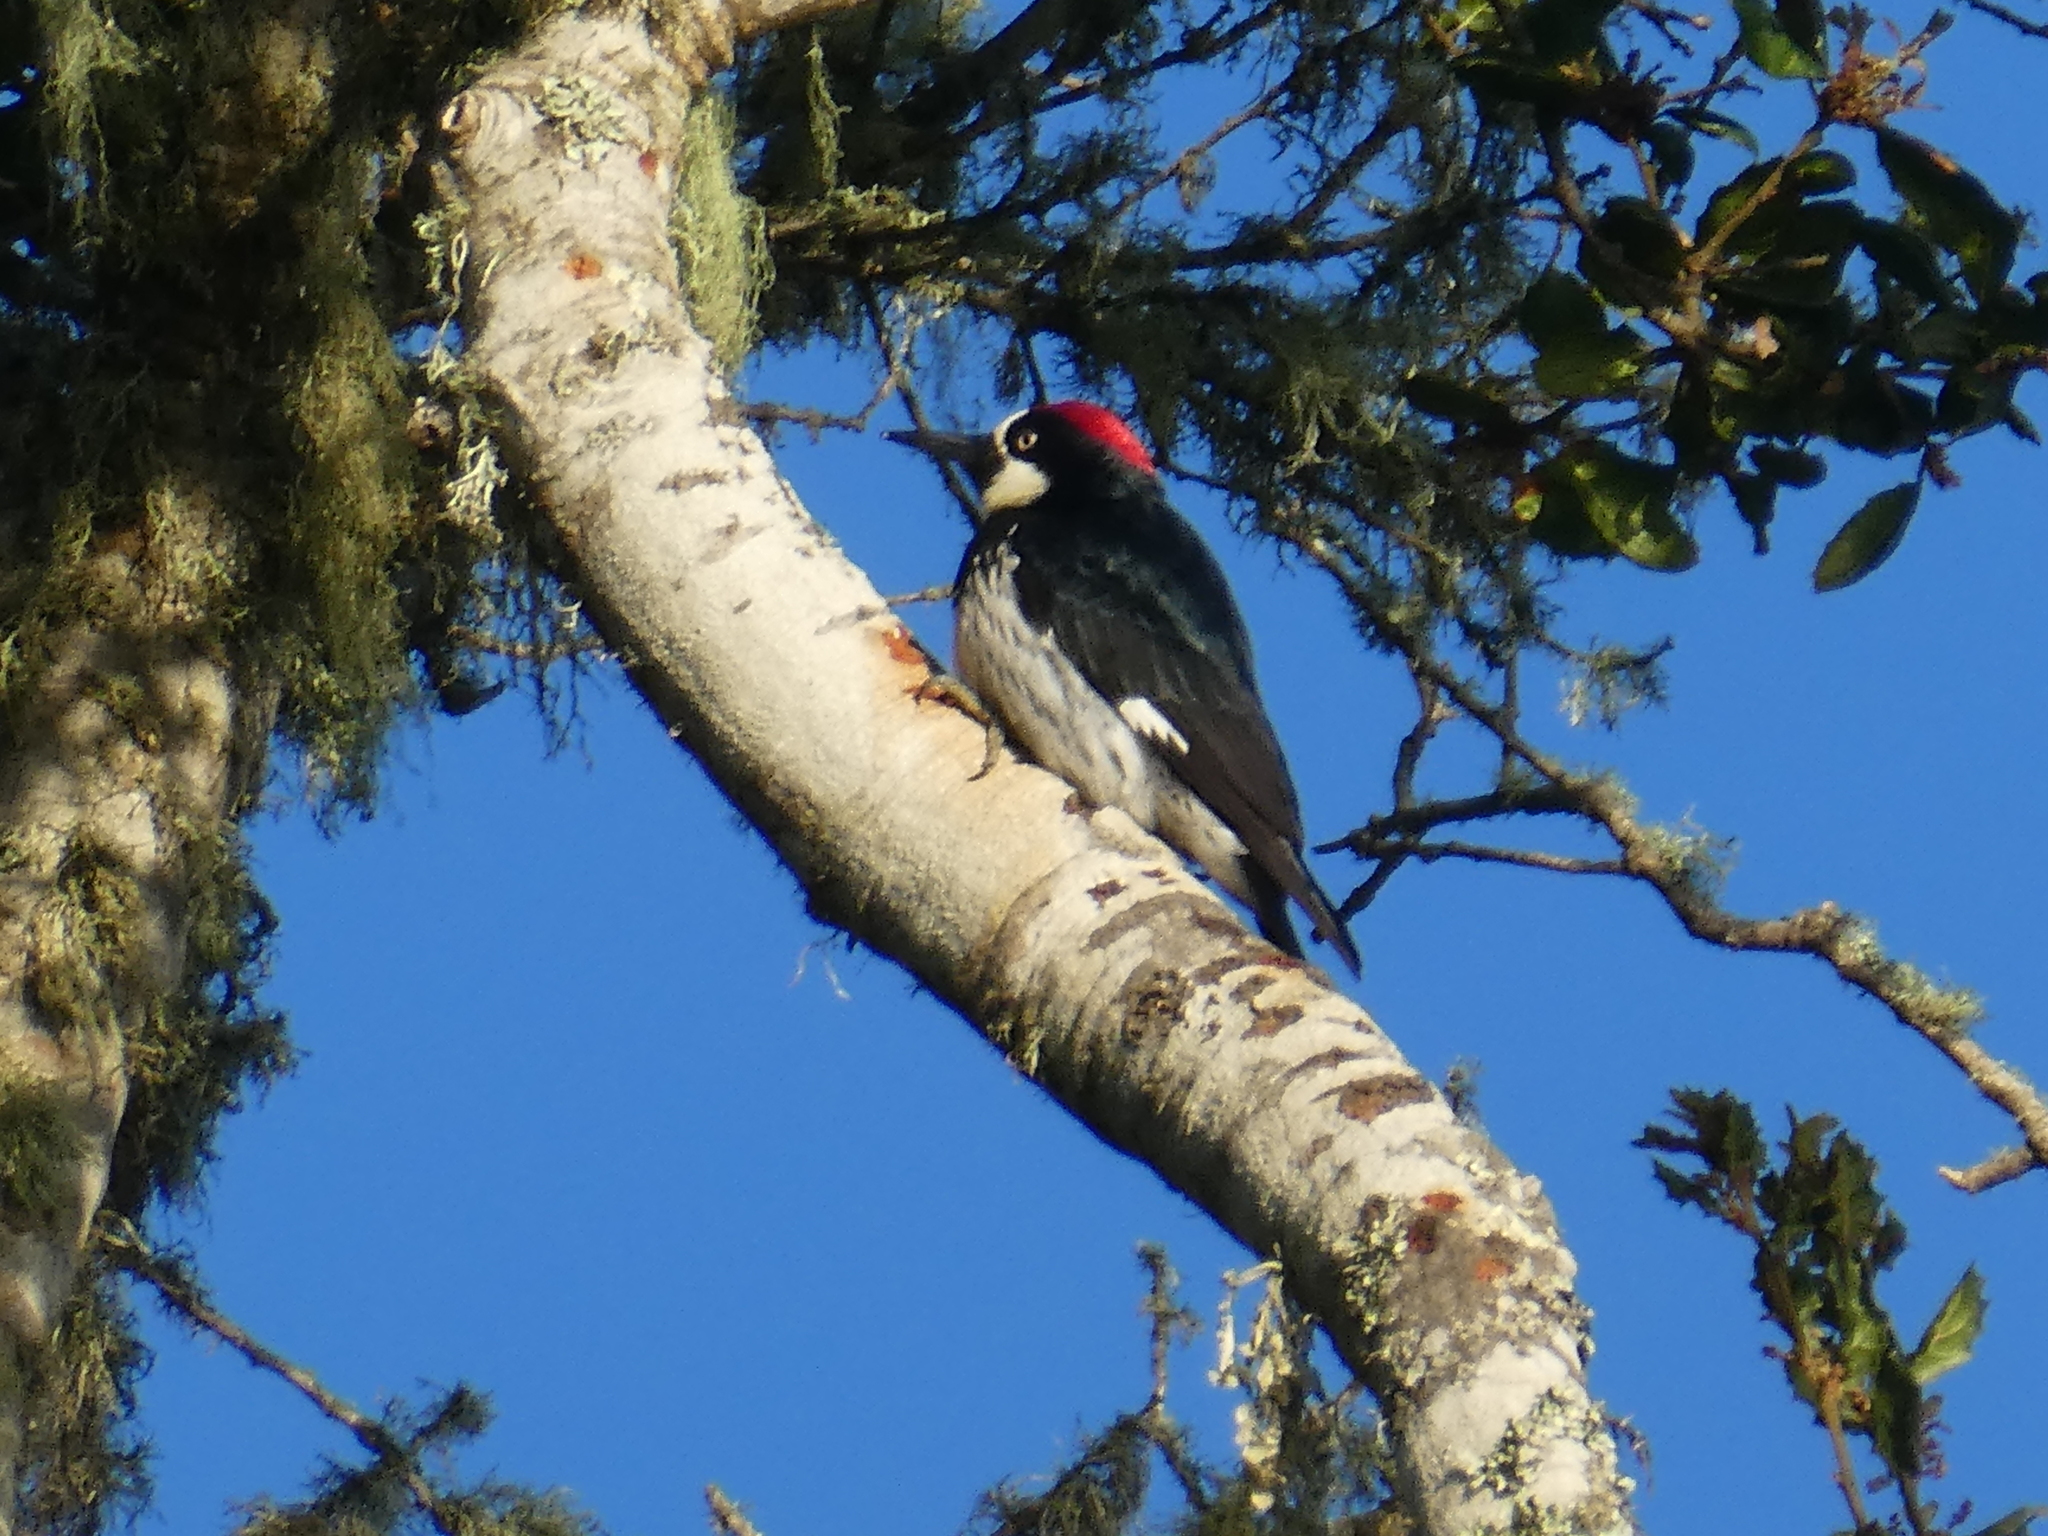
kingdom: Animalia
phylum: Chordata
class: Aves
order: Piciformes
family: Picidae
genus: Melanerpes
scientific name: Melanerpes formicivorus
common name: Acorn woodpecker
